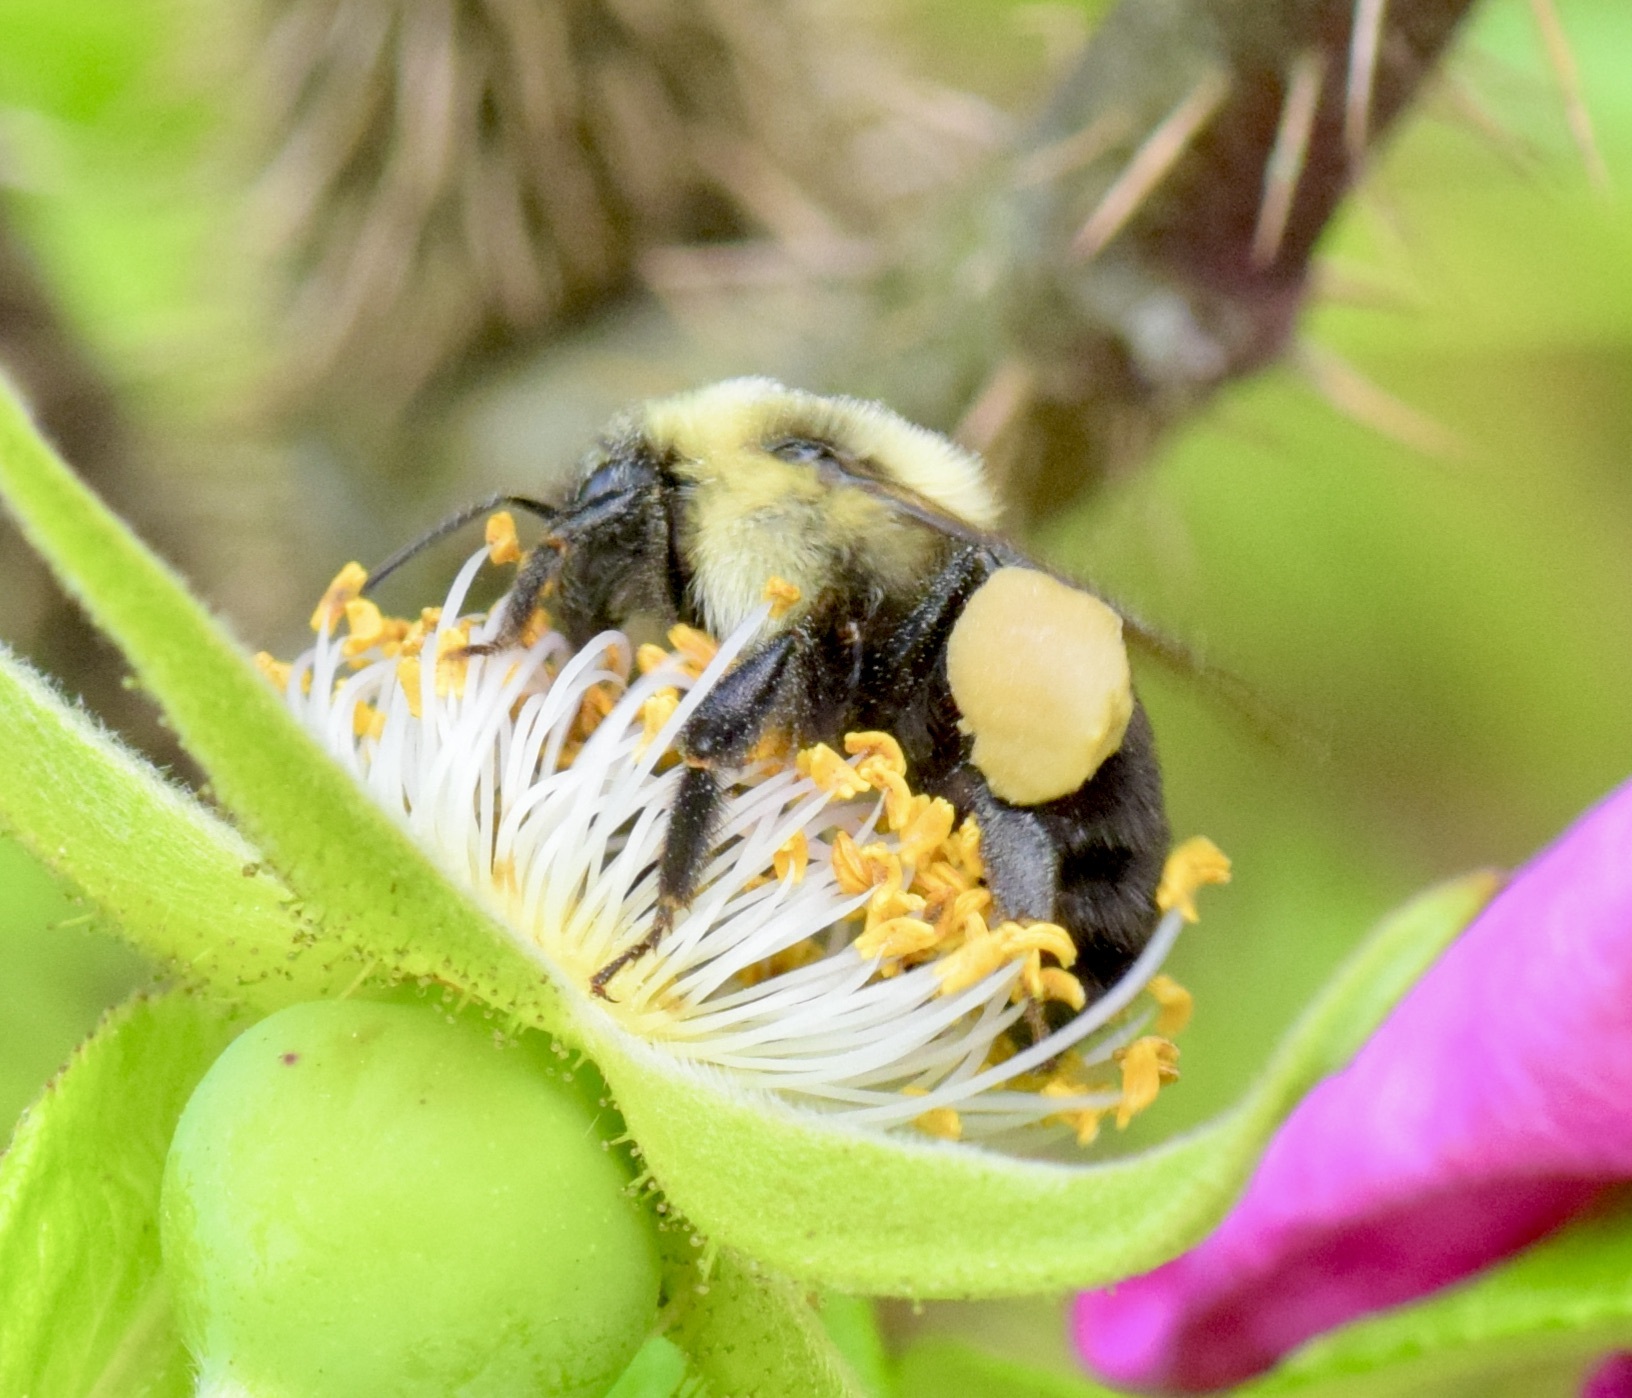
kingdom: Animalia
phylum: Arthropoda
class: Insecta
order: Hymenoptera
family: Apidae
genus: Bombus
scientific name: Bombus impatiens
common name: Common eastern bumble bee
